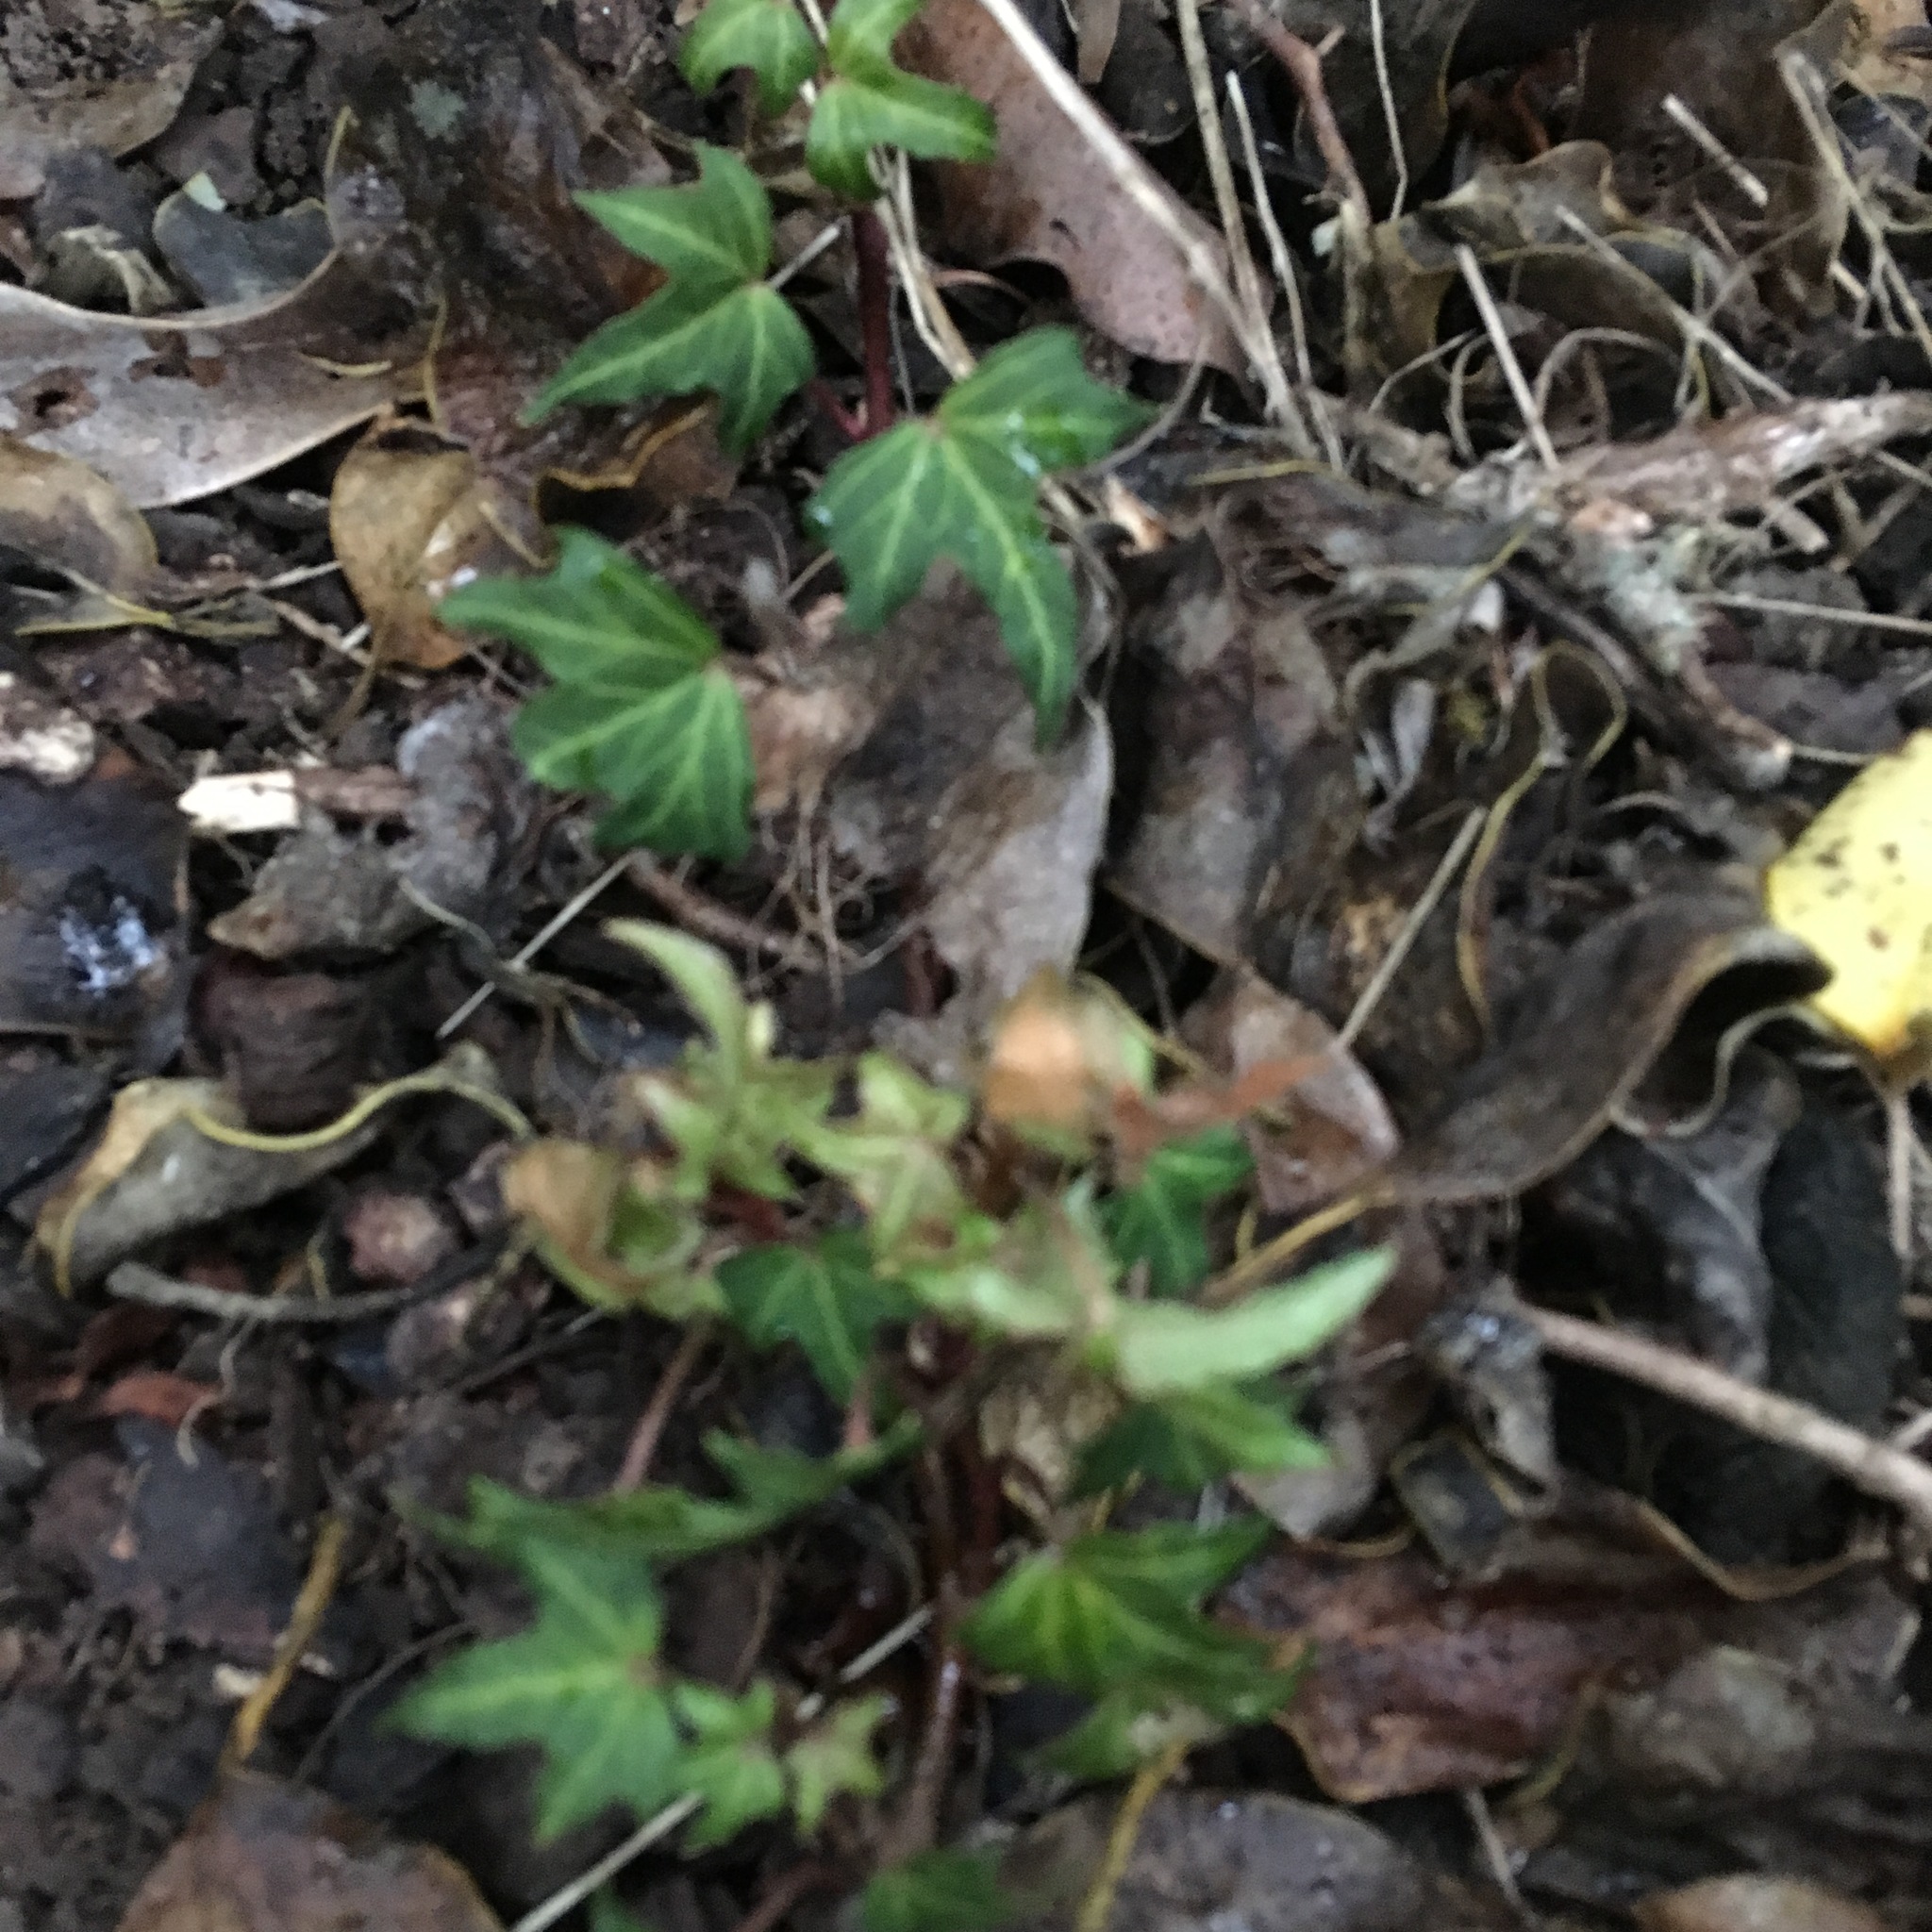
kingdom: Plantae
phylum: Tracheophyta
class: Magnoliopsida
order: Apiales
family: Araliaceae
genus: Hedera
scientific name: Hedera helix
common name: Ivy
